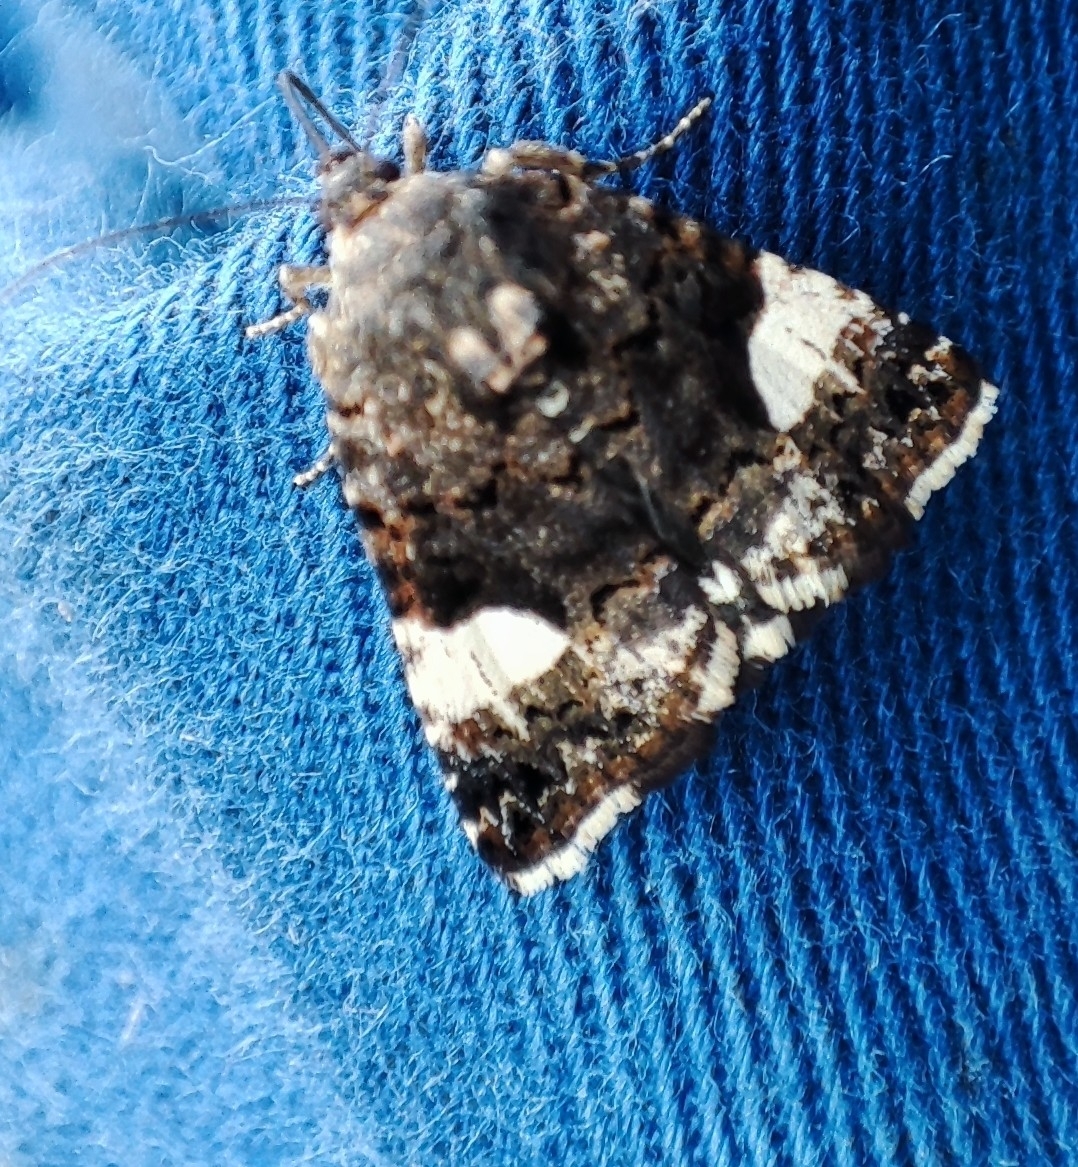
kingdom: Animalia
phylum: Arthropoda
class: Insecta
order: Lepidoptera
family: Erebidae
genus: Tyta
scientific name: Tyta luctuosa
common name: Four-spotted
